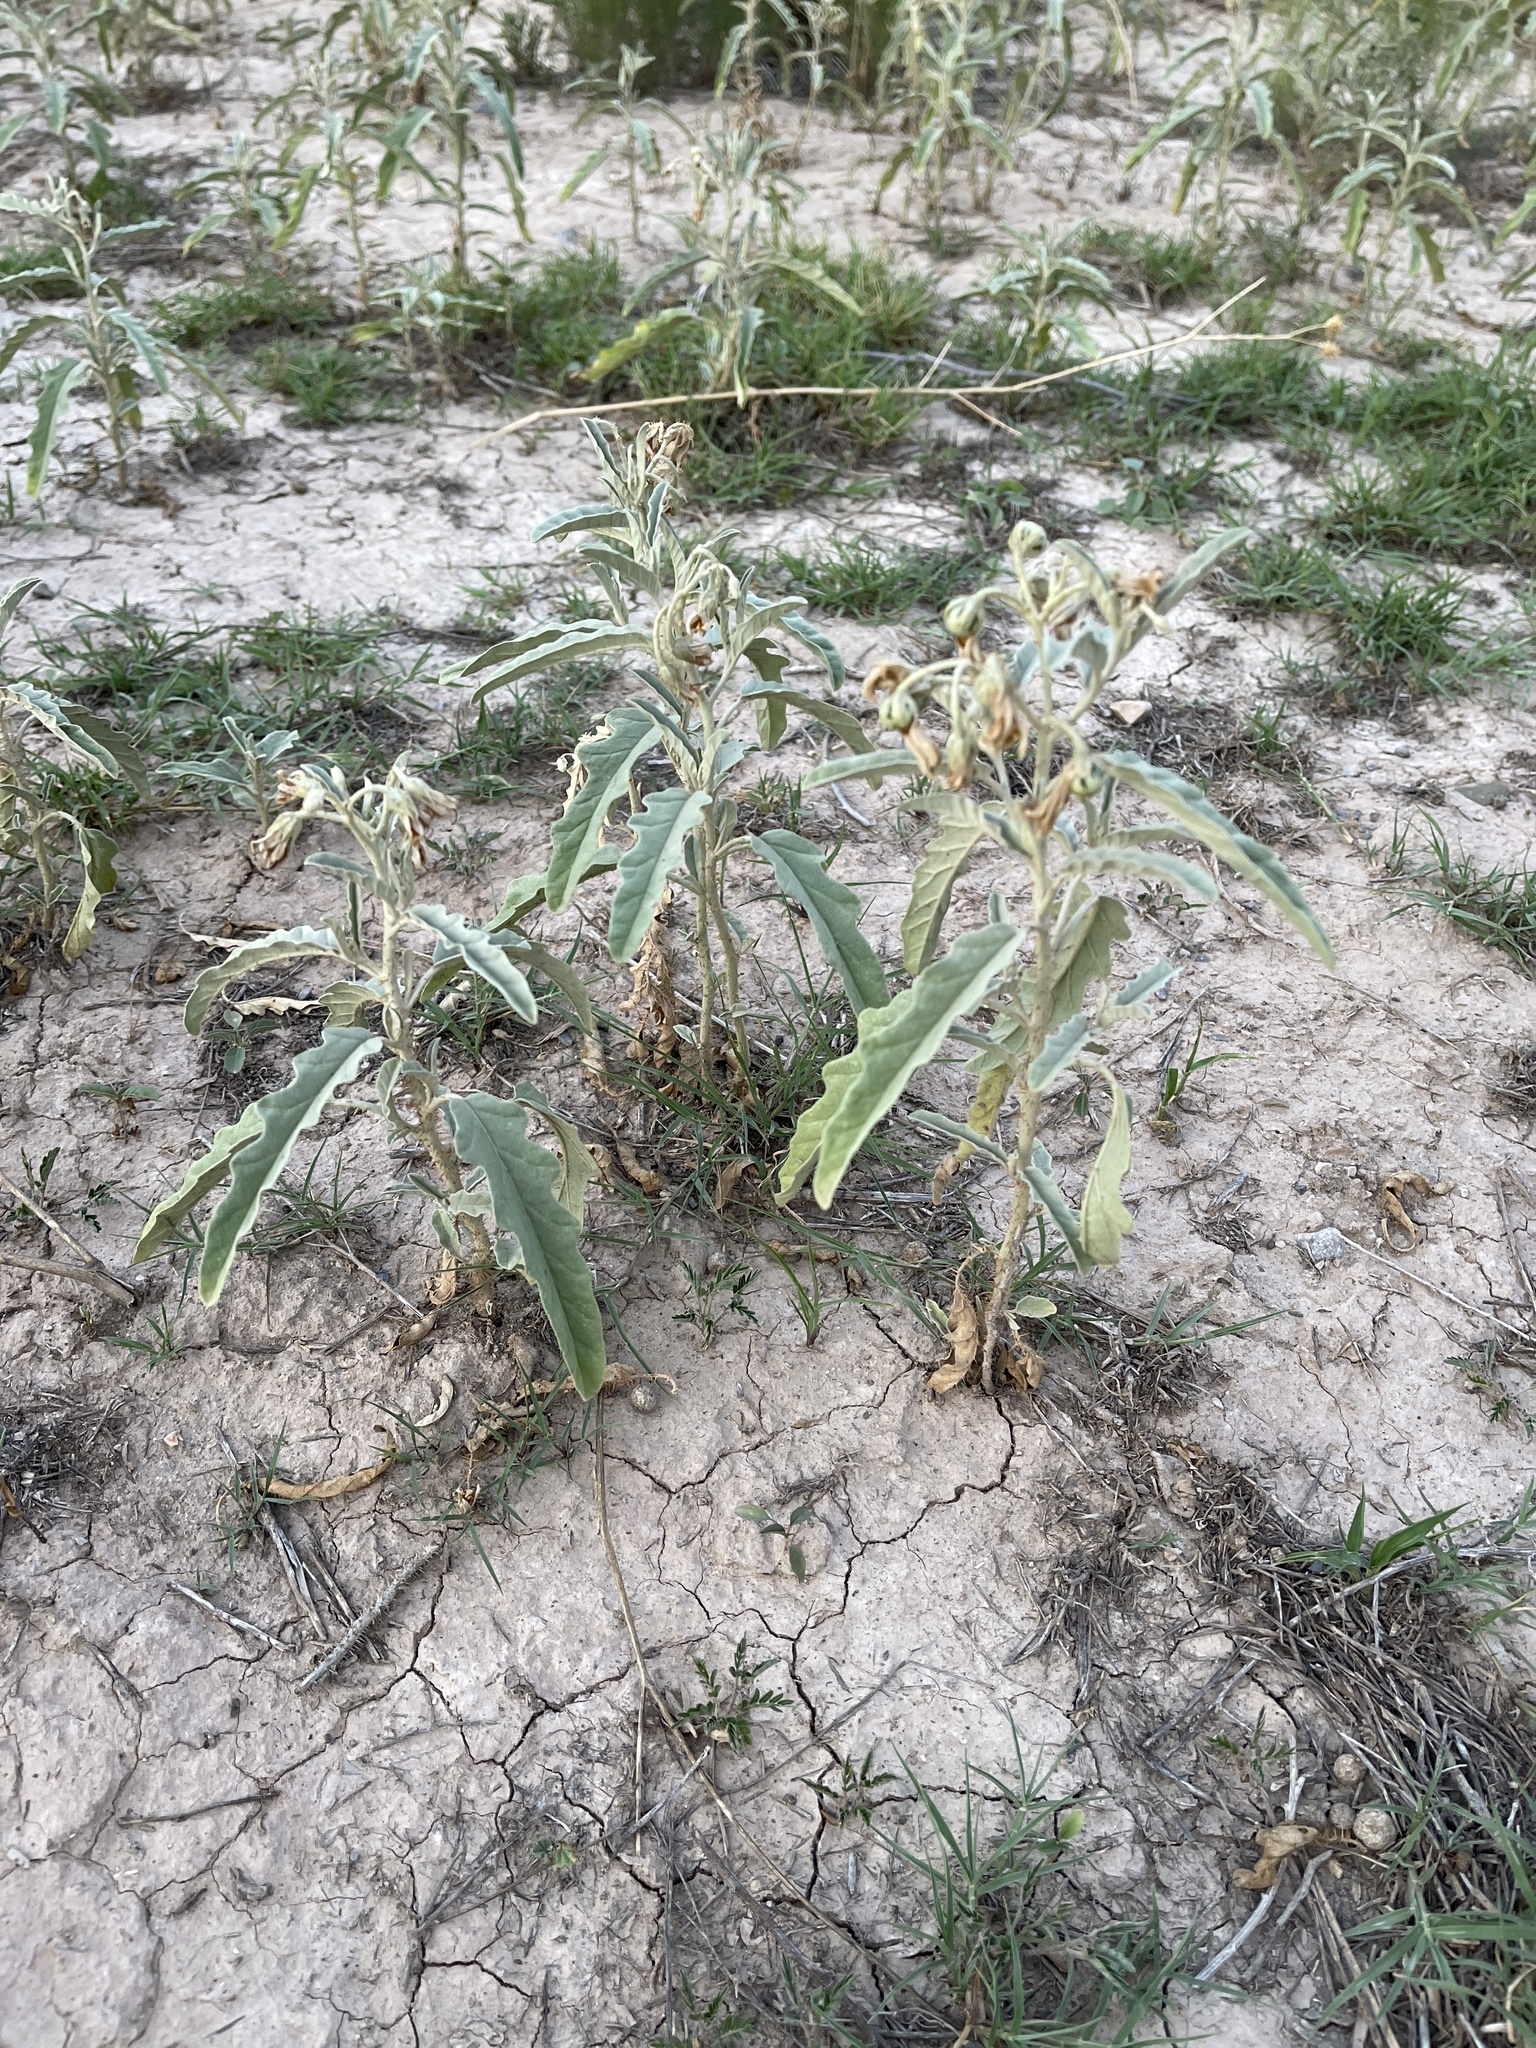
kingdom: Plantae
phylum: Tracheophyta
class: Magnoliopsida
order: Solanales
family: Solanaceae
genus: Solanum
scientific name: Solanum elaeagnifolium
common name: Silverleaf nightshade
